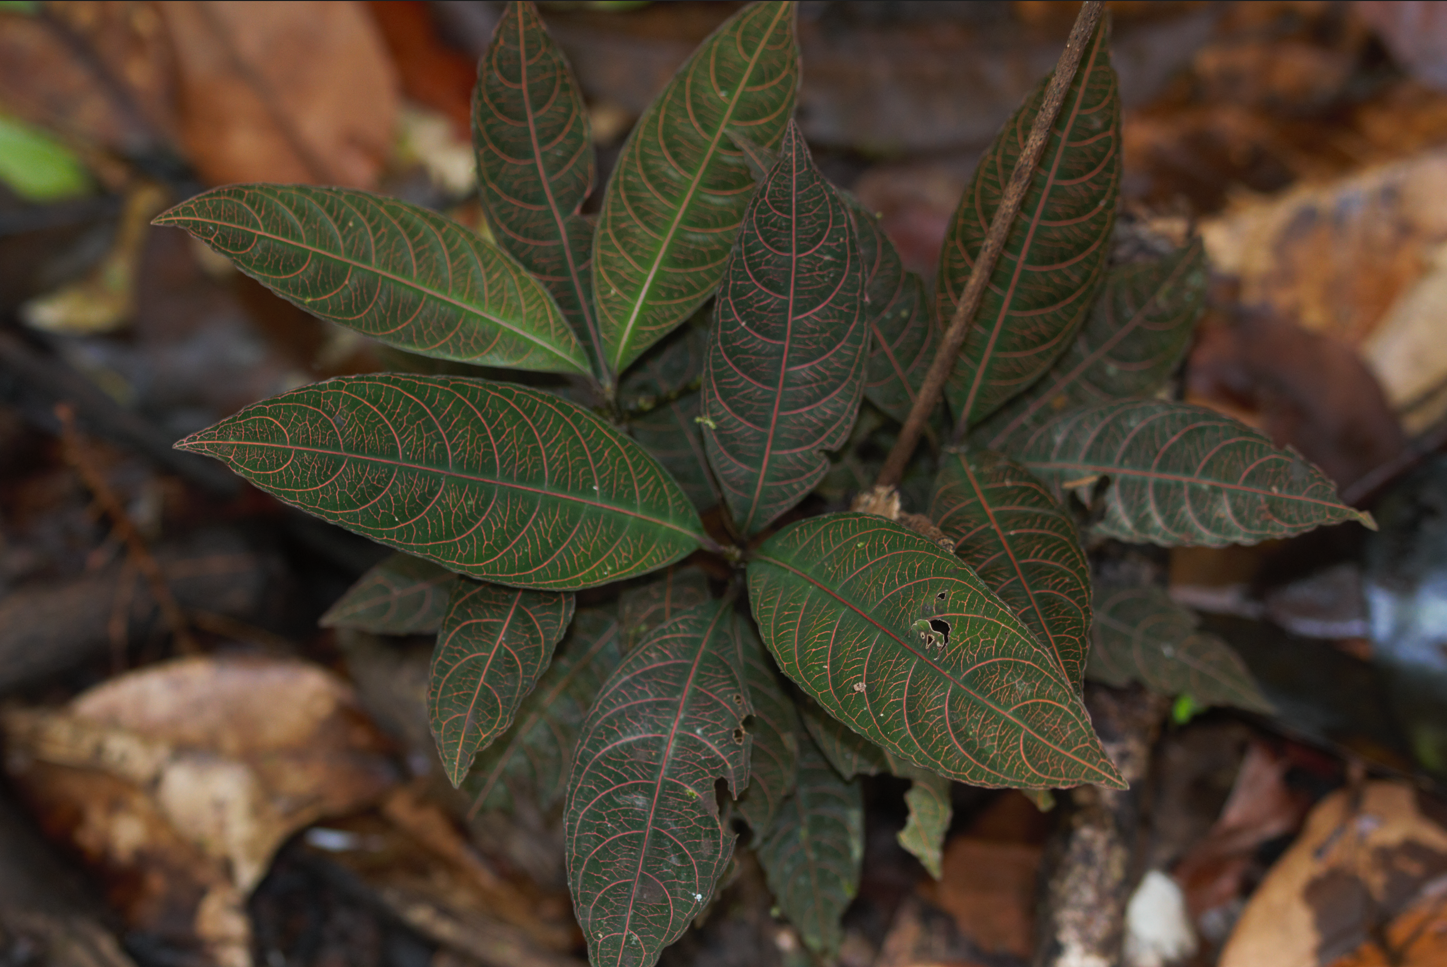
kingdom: Plantae
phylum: Tracheophyta
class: Magnoliopsida
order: Gentianales
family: Rubiaceae
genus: Palicourea
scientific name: Palicourea microbotrys
